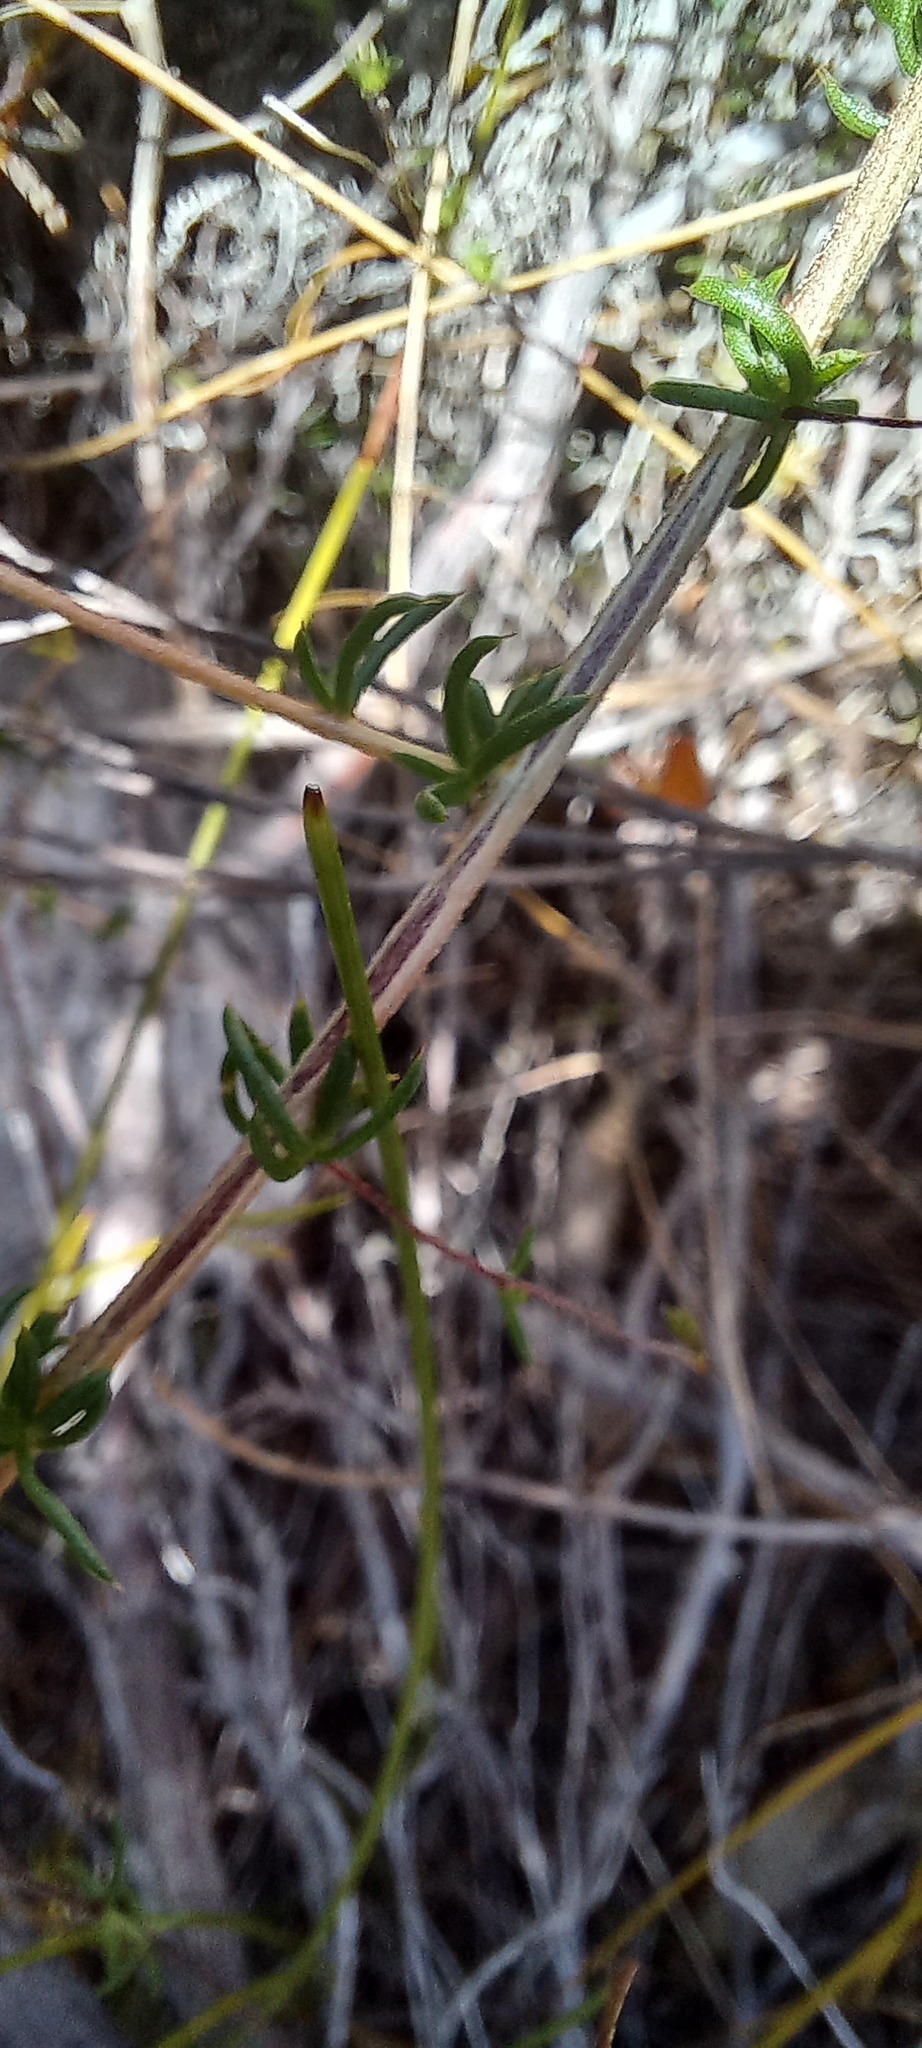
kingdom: Plantae
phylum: Tracheophyta
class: Magnoliopsida
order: Fabales
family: Fabaceae
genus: Aspalathus
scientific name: Aspalathus serpens
